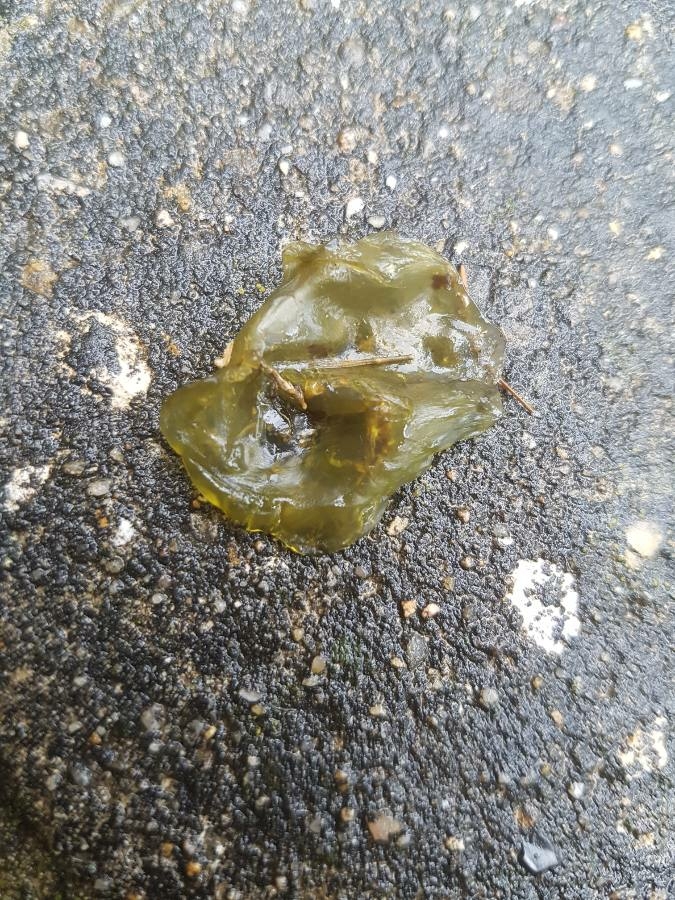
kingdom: Bacteria
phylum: Cyanobacteria
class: Cyanobacteriia
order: Cyanobacteriales
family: Nostocaceae
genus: Nostoc
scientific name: Nostoc commune
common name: Star jelly
